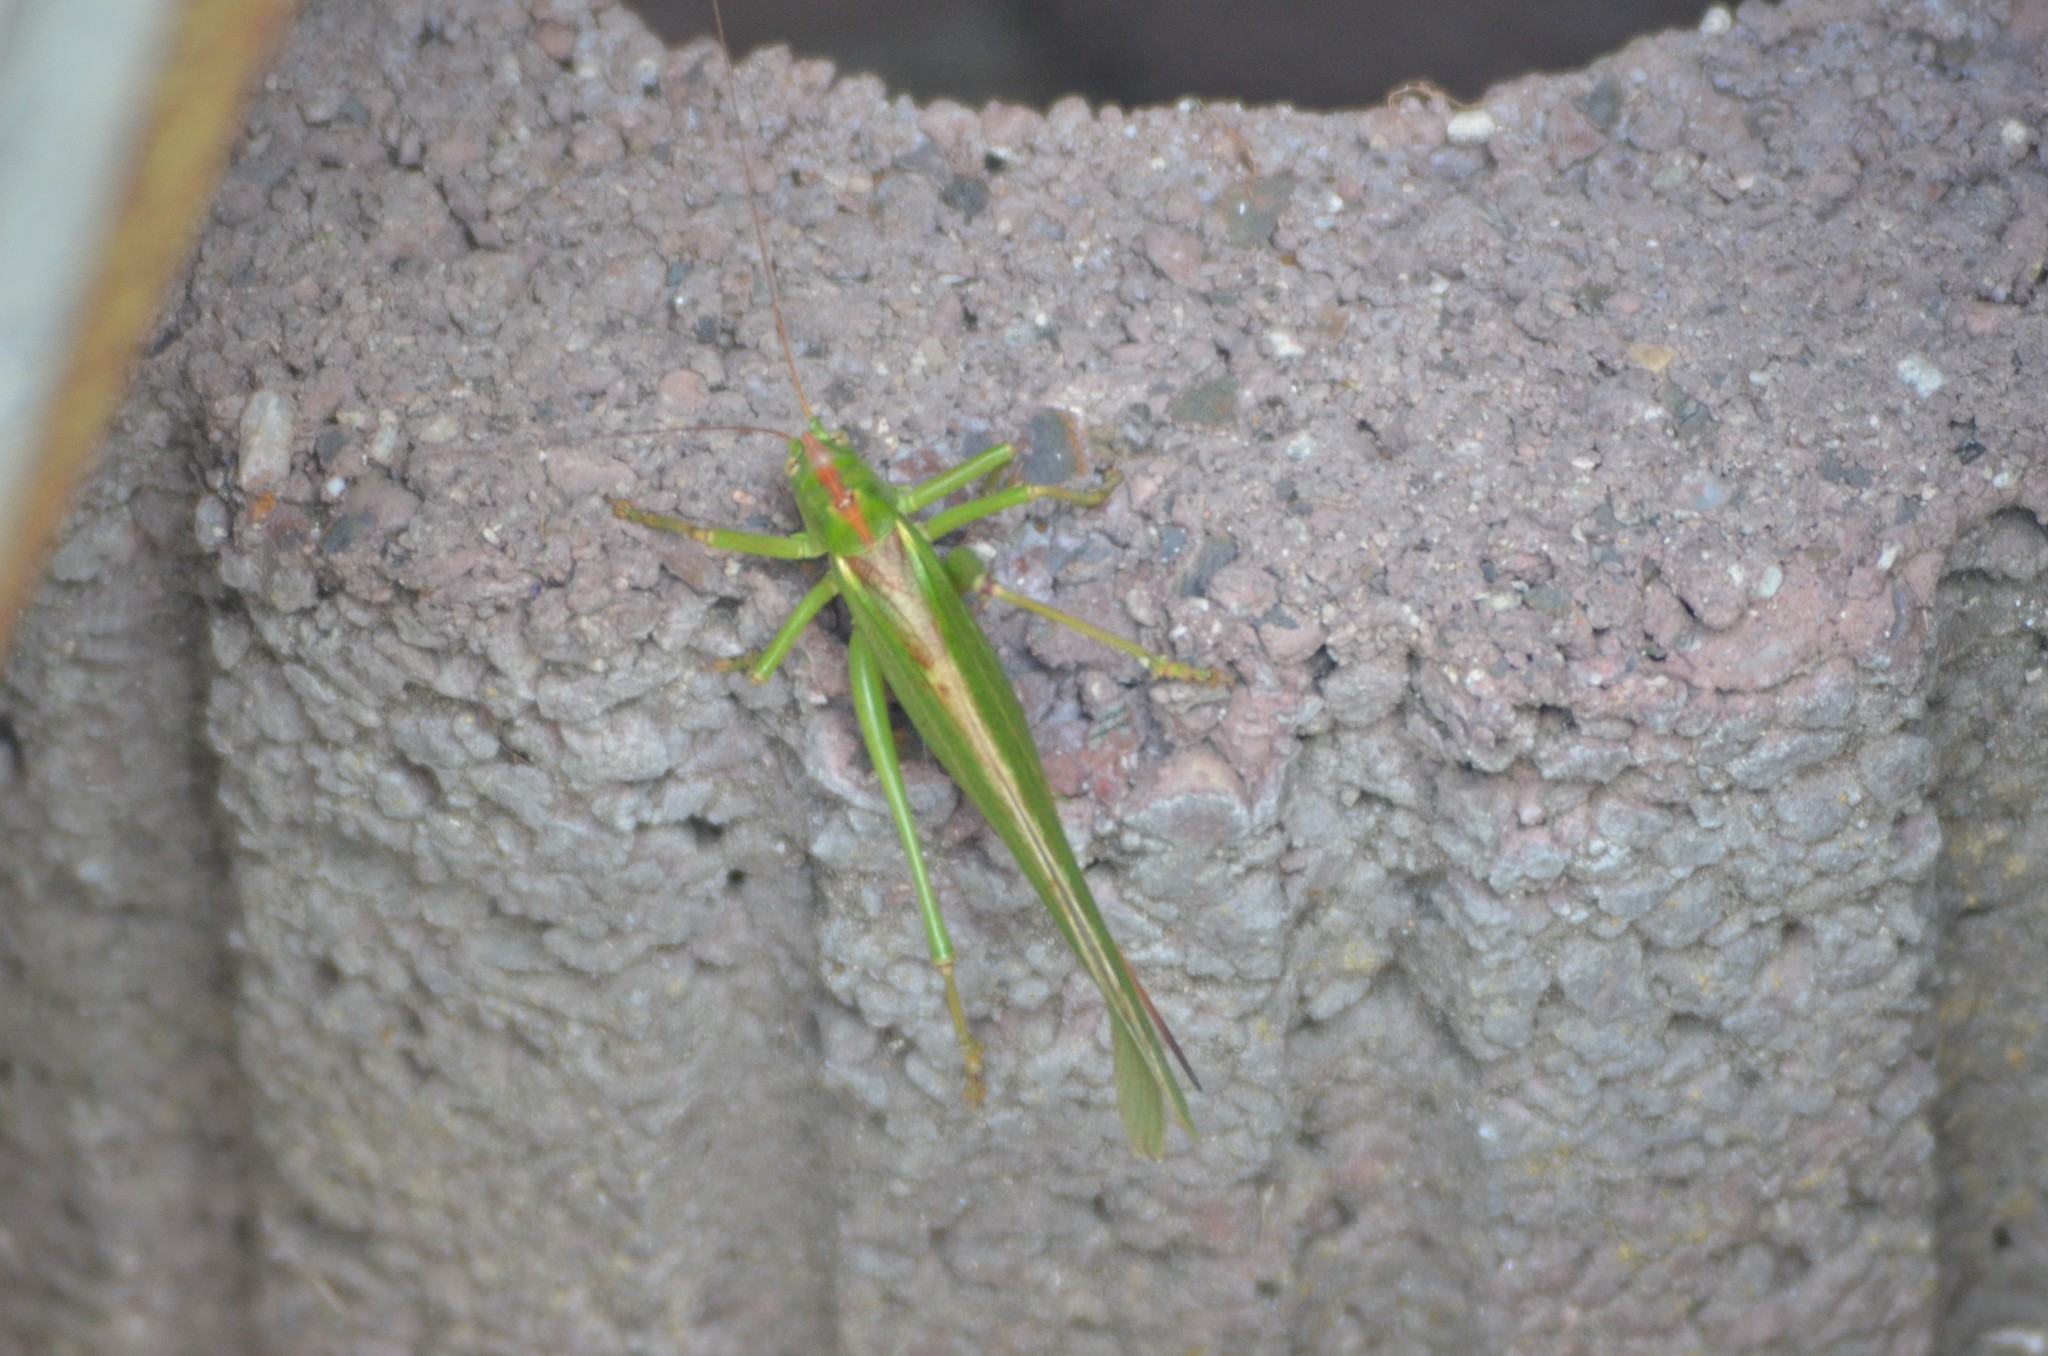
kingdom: Animalia
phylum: Arthropoda
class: Insecta
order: Orthoptera
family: Tettigoniidae
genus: Tettigonia
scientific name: Tettigonia viridissima
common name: Great green bush-cricket
